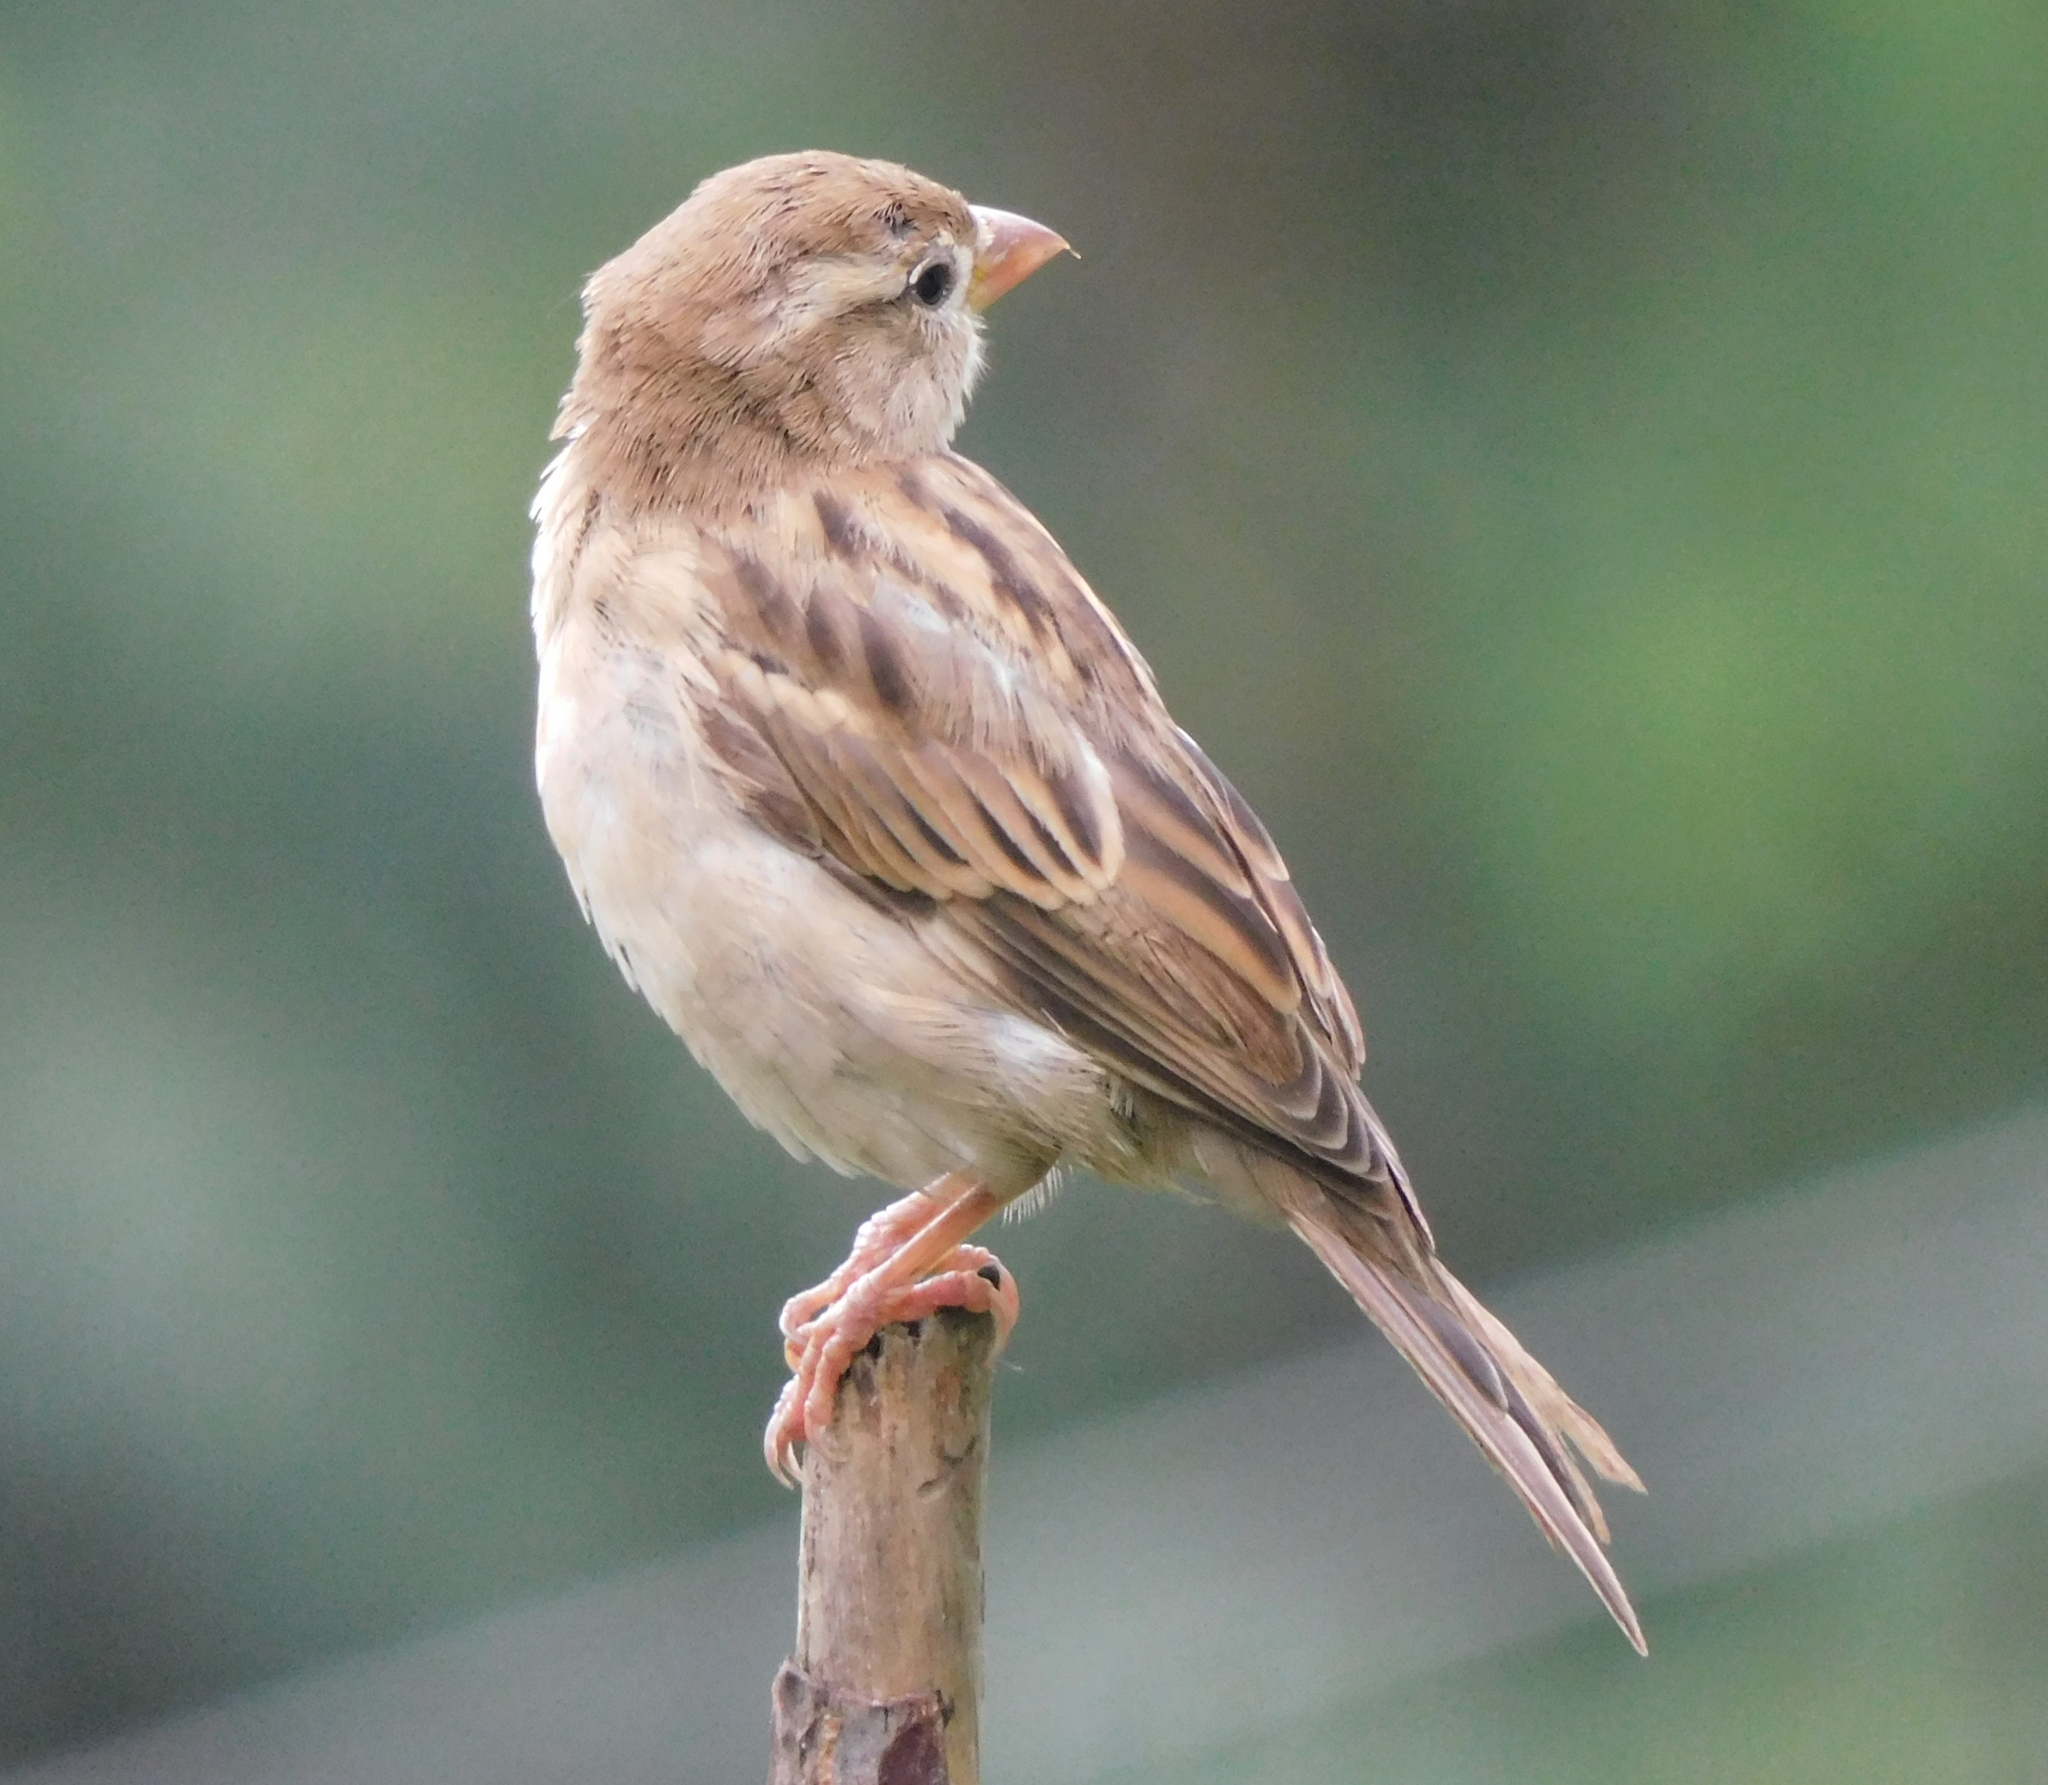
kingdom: Animalia
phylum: Chordata
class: Aves
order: Passeriformes
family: Passeridae
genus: Passer
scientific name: Passer domesticus
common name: House sparrow
